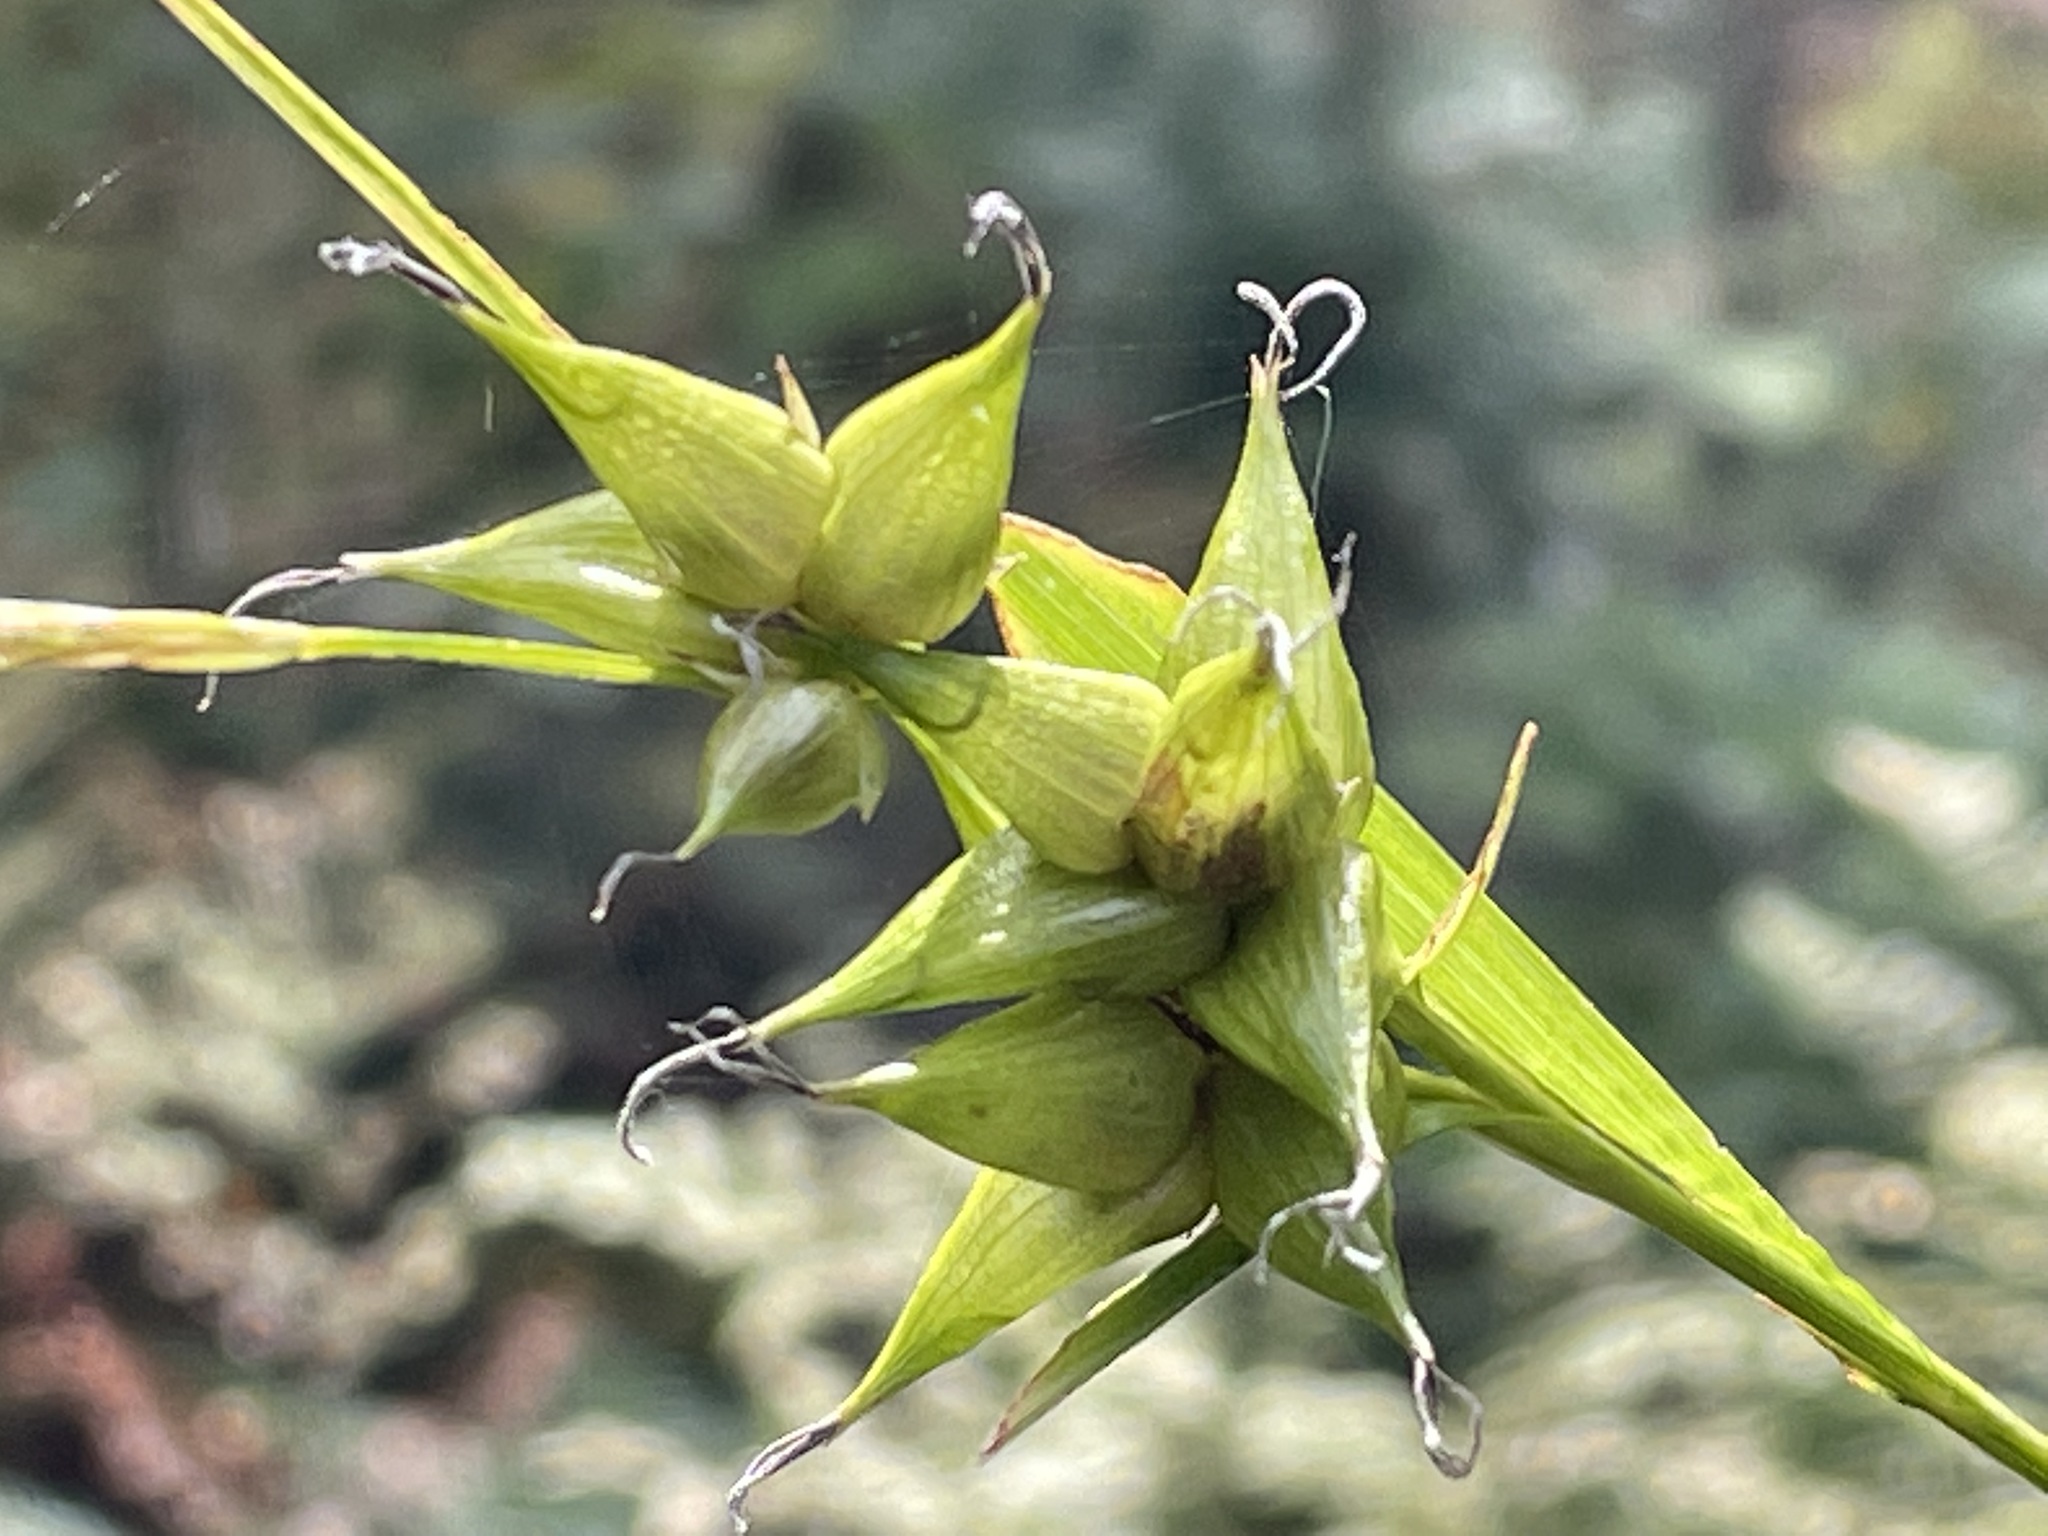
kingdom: Plantae
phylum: Tracheophyta
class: Liliopsida
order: Poales
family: Cyperaceae
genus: Carex
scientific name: Carex intumescens
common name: Greater bladder sedge
